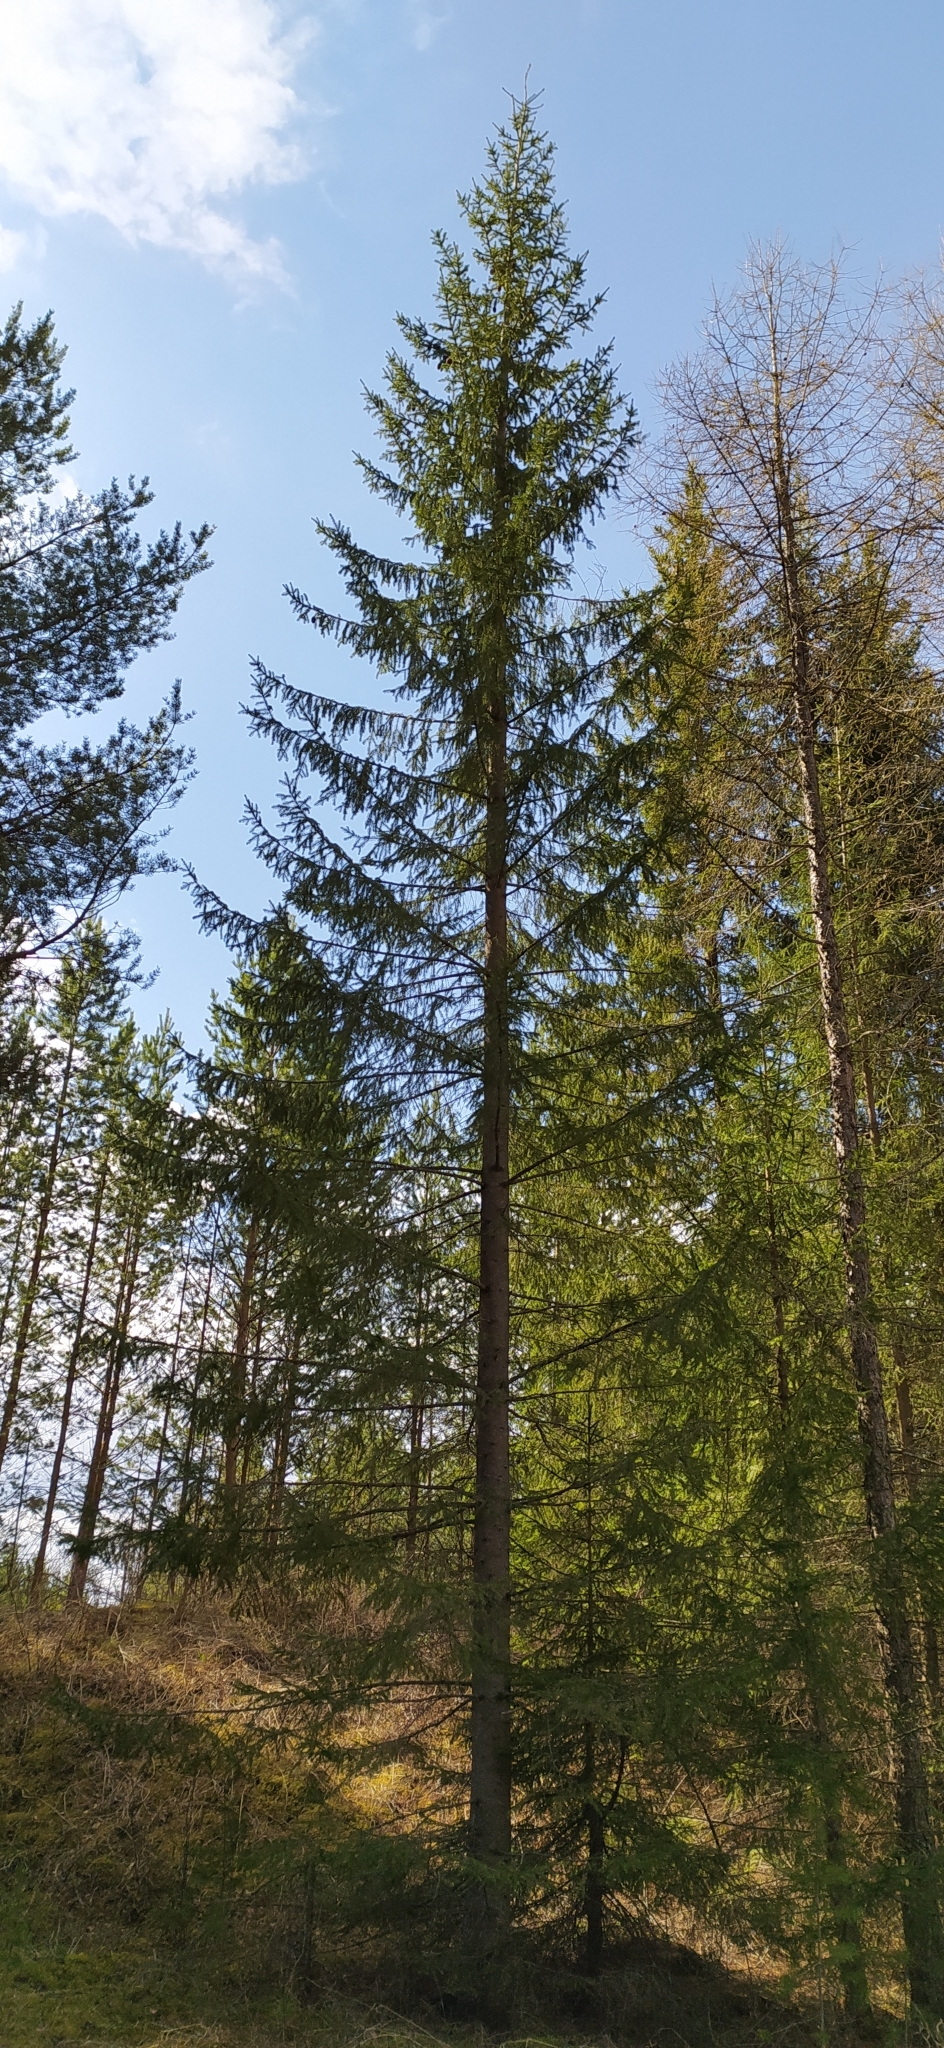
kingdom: Plantae
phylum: Tracheophyta
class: Pinopsida
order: Pinales
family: Pinaceae
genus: Picea
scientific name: Picea obovata
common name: Siberian spruce
